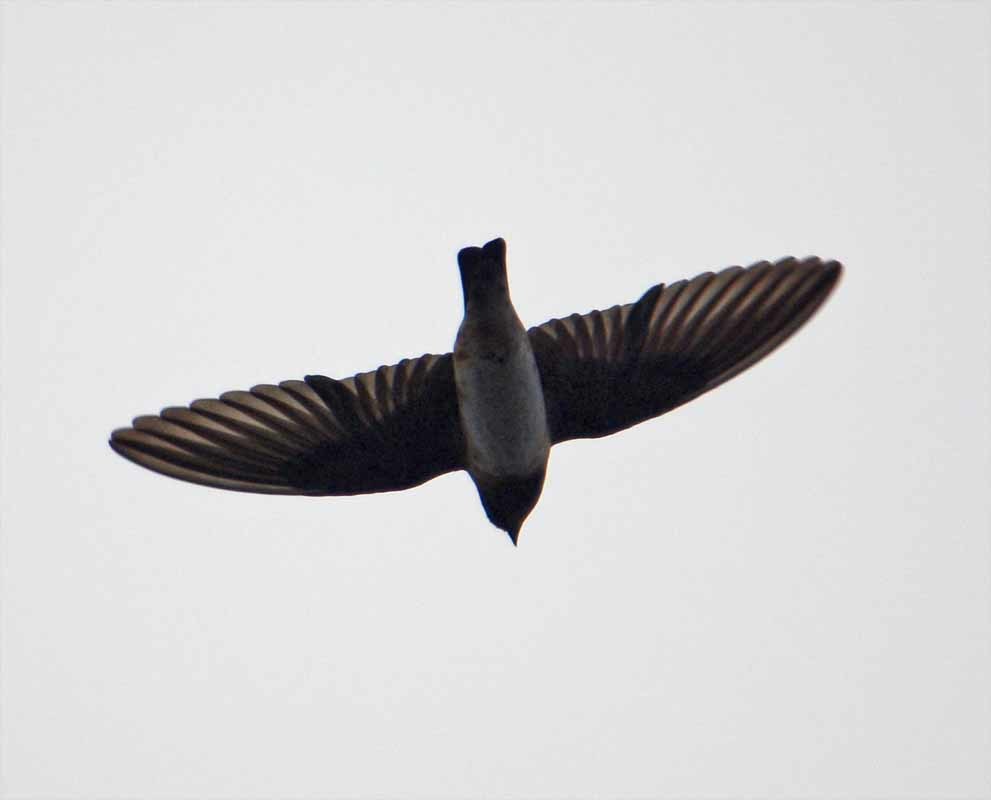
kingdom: Animalia
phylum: Chordata
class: Aves
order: Passeriformes
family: Hirundinidae
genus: Petrochelidon
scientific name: Petrochelidon fulva
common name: Cave swallow
